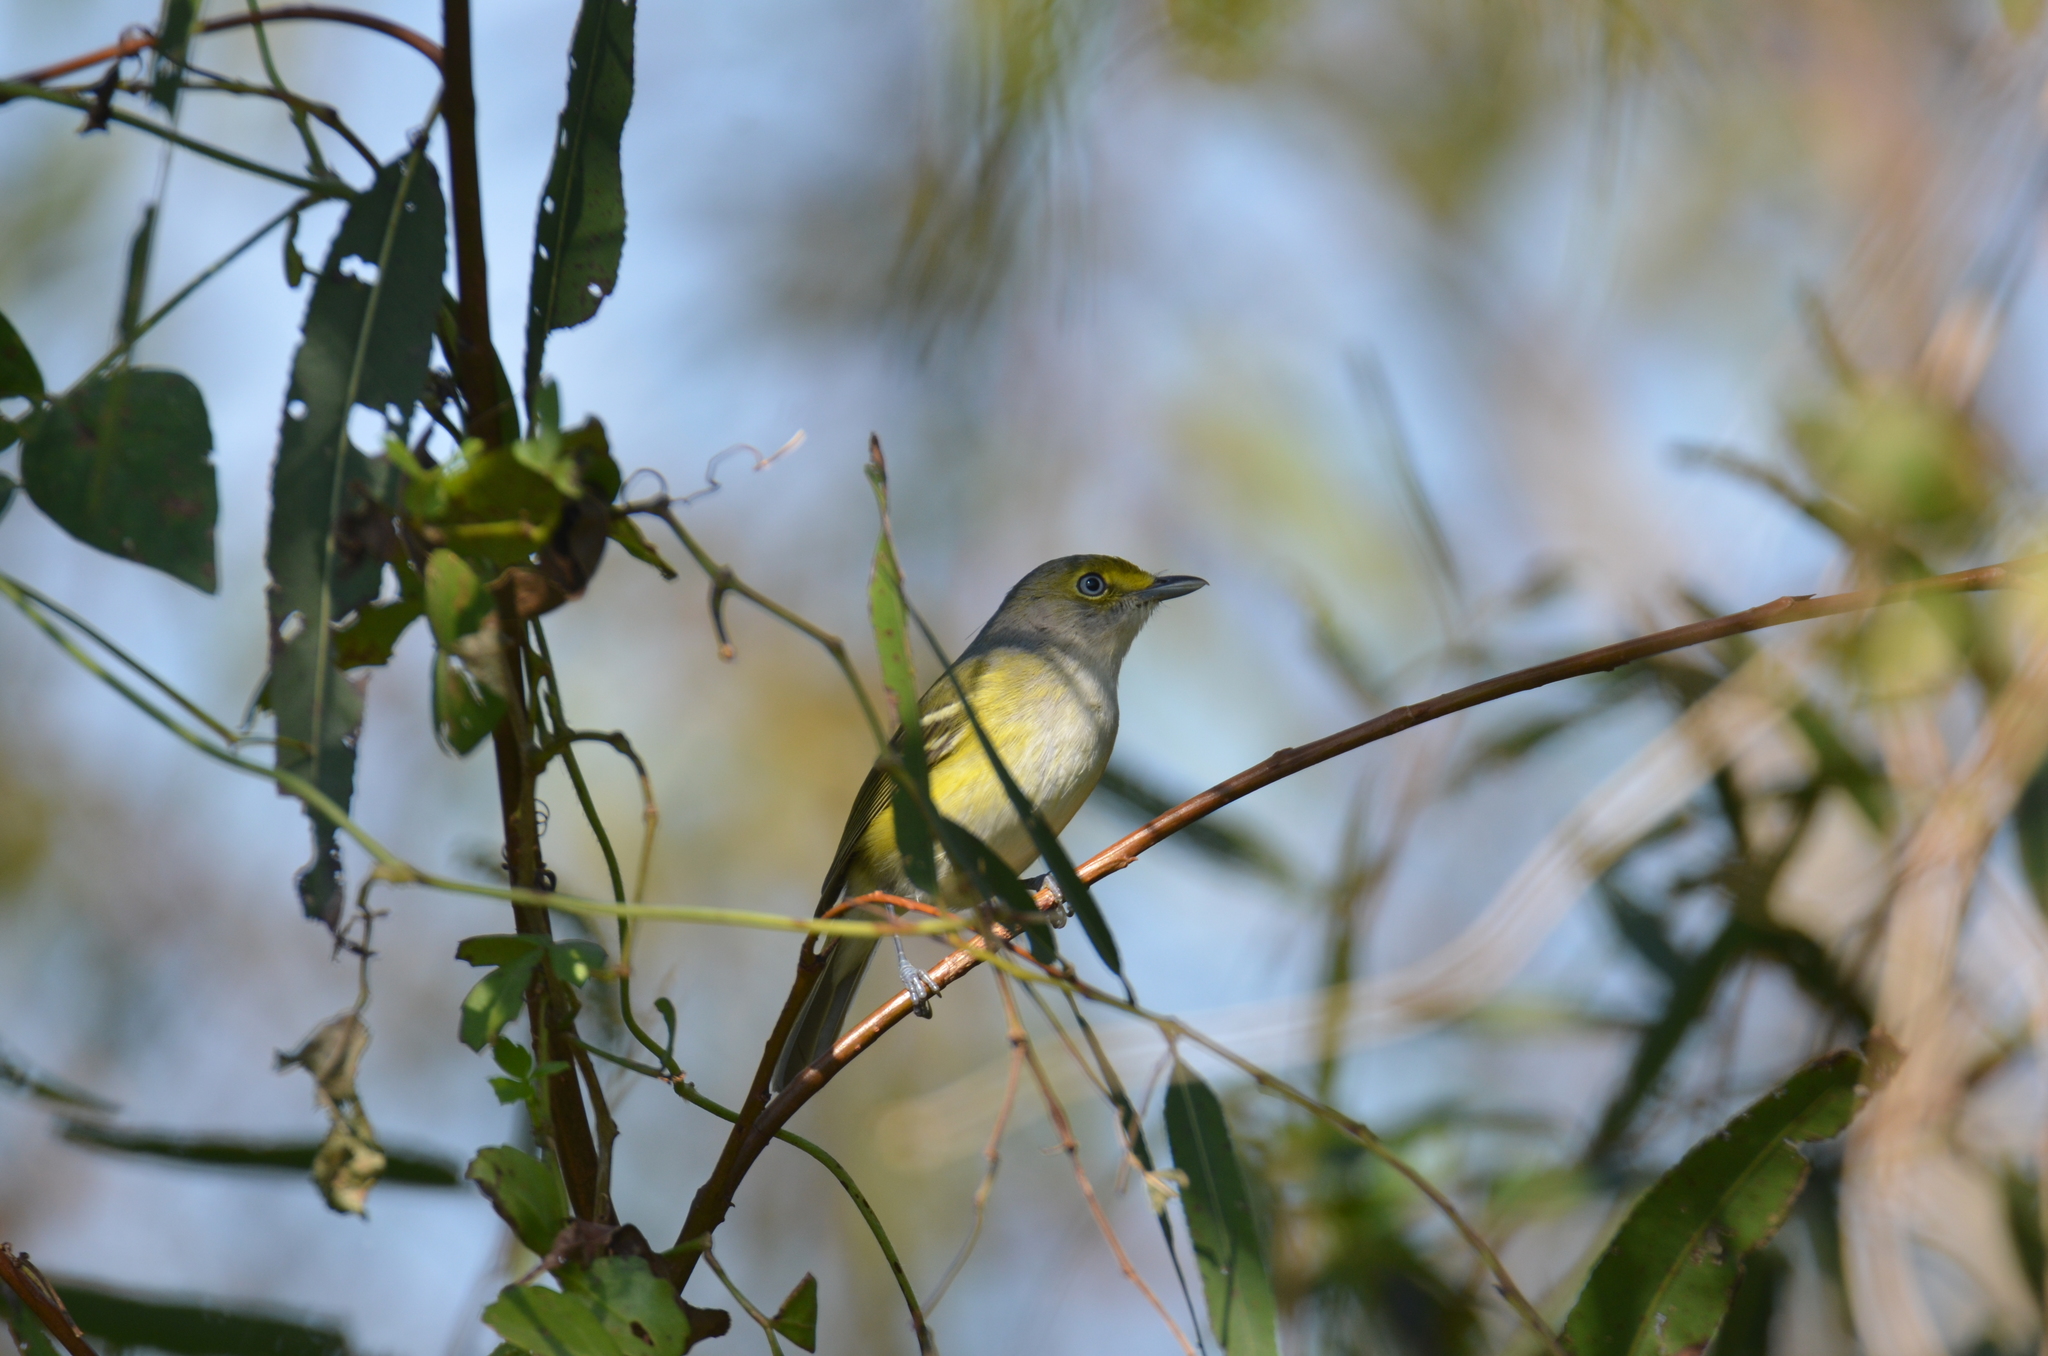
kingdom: Animalia
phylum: Chordata
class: Aves
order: Passeriformes
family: Vireonidae
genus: Vireo
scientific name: Vireo griseus
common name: White-eyed vireo
